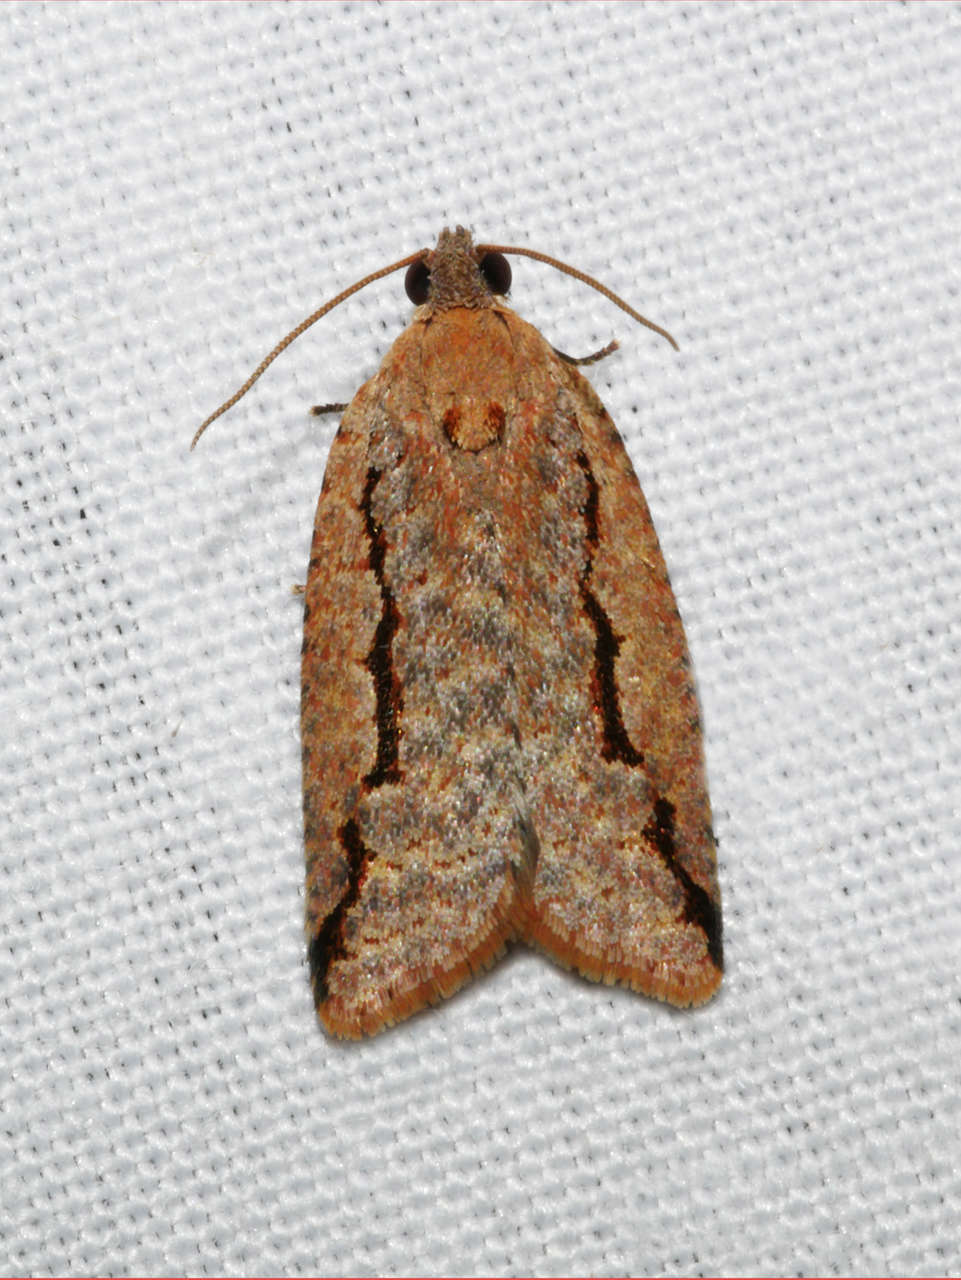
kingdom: Animalia
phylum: Arthropoda
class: Insecta
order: Lepidoptera
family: Tortricidae
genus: Meritastis
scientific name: Meritastis
